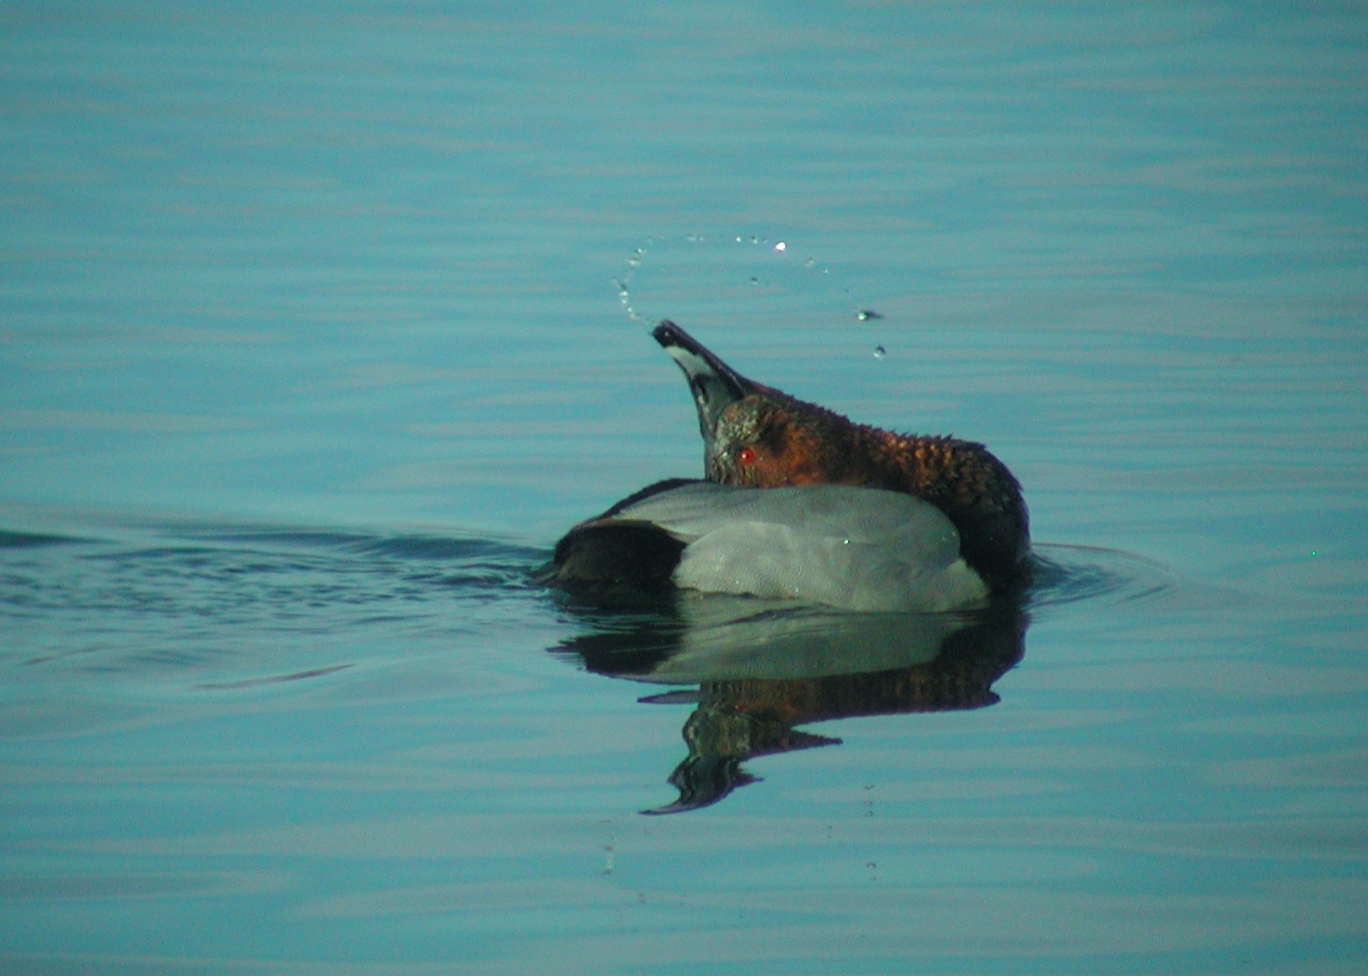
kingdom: Animalia
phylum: Chordata
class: Aves
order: Anseriformes
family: Anatidae
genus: Aythya
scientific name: Aythya ferina
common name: Common pochard
